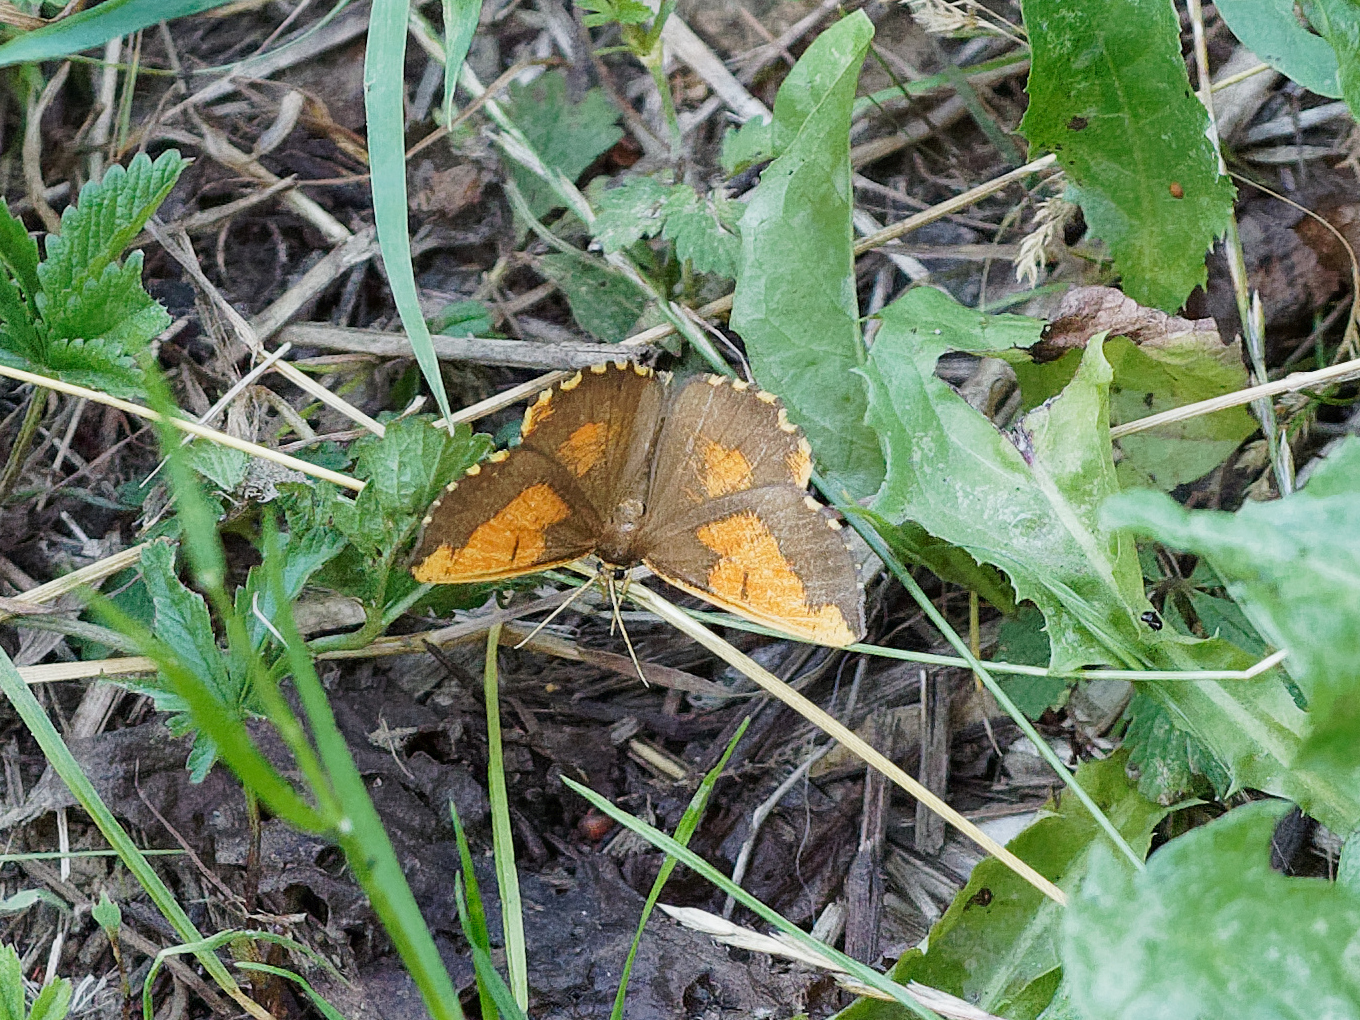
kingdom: Animalia
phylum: Arthropoda
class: Insecta
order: Lepidoptera
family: Geometridae
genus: Angerona
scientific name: Angerona prunaria
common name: Orange moth
